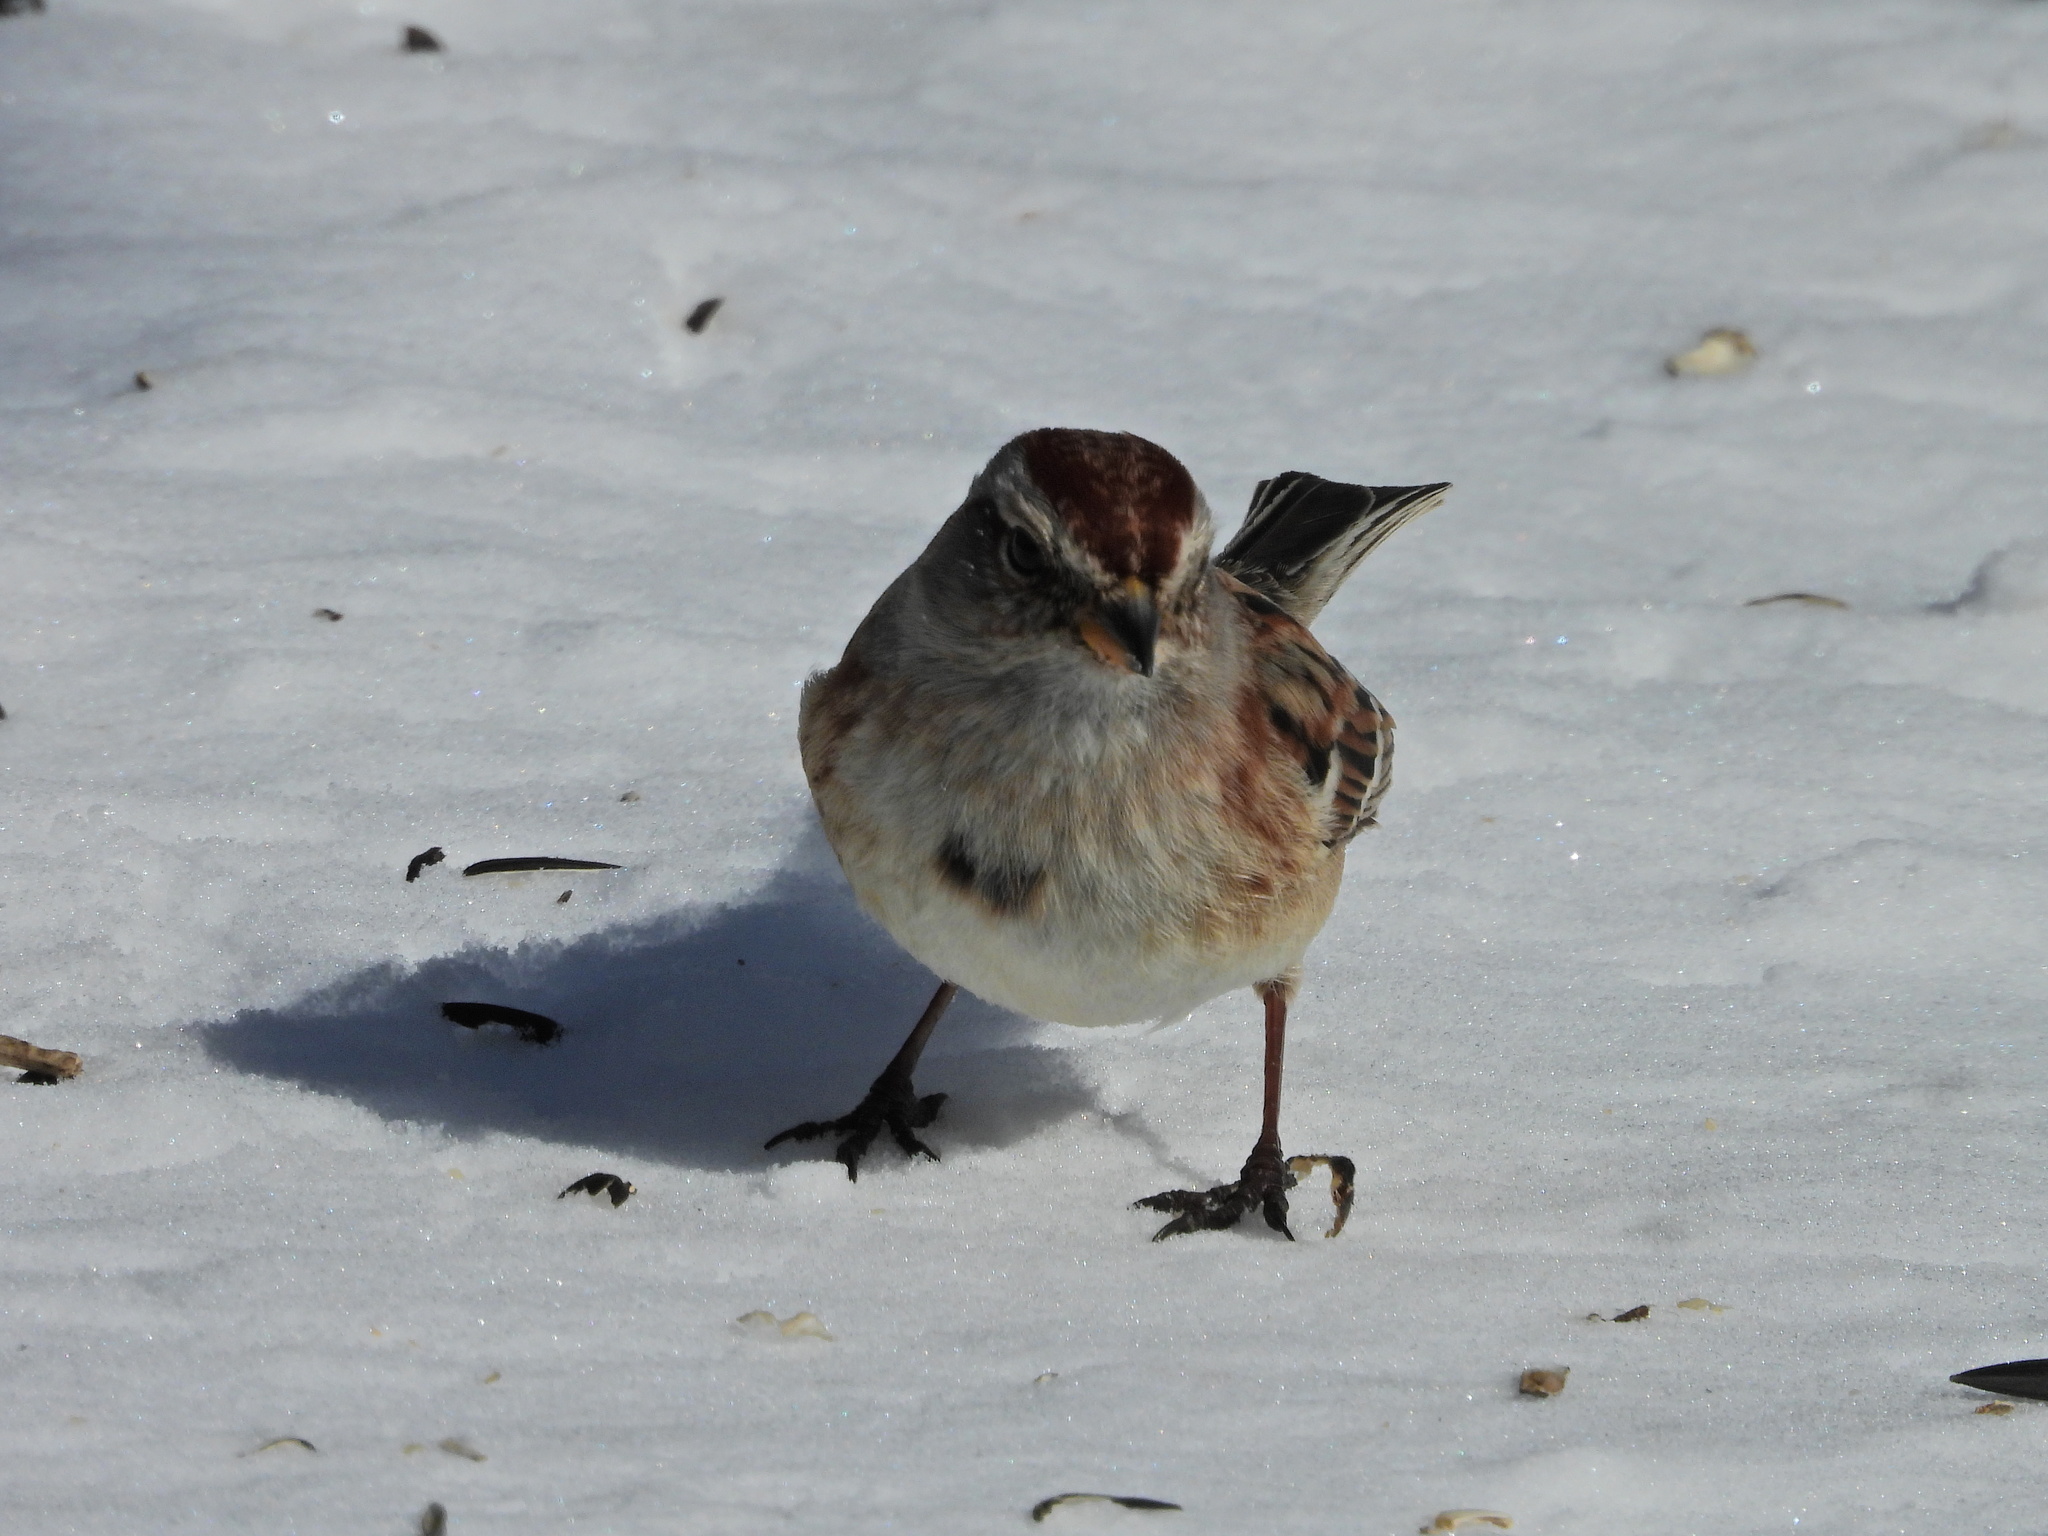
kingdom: Animalia
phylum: Chordata
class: Aves
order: Passeriformes
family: Passerellidae
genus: Spizelloides
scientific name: Spizelloides arborea
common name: American tree sparrow
